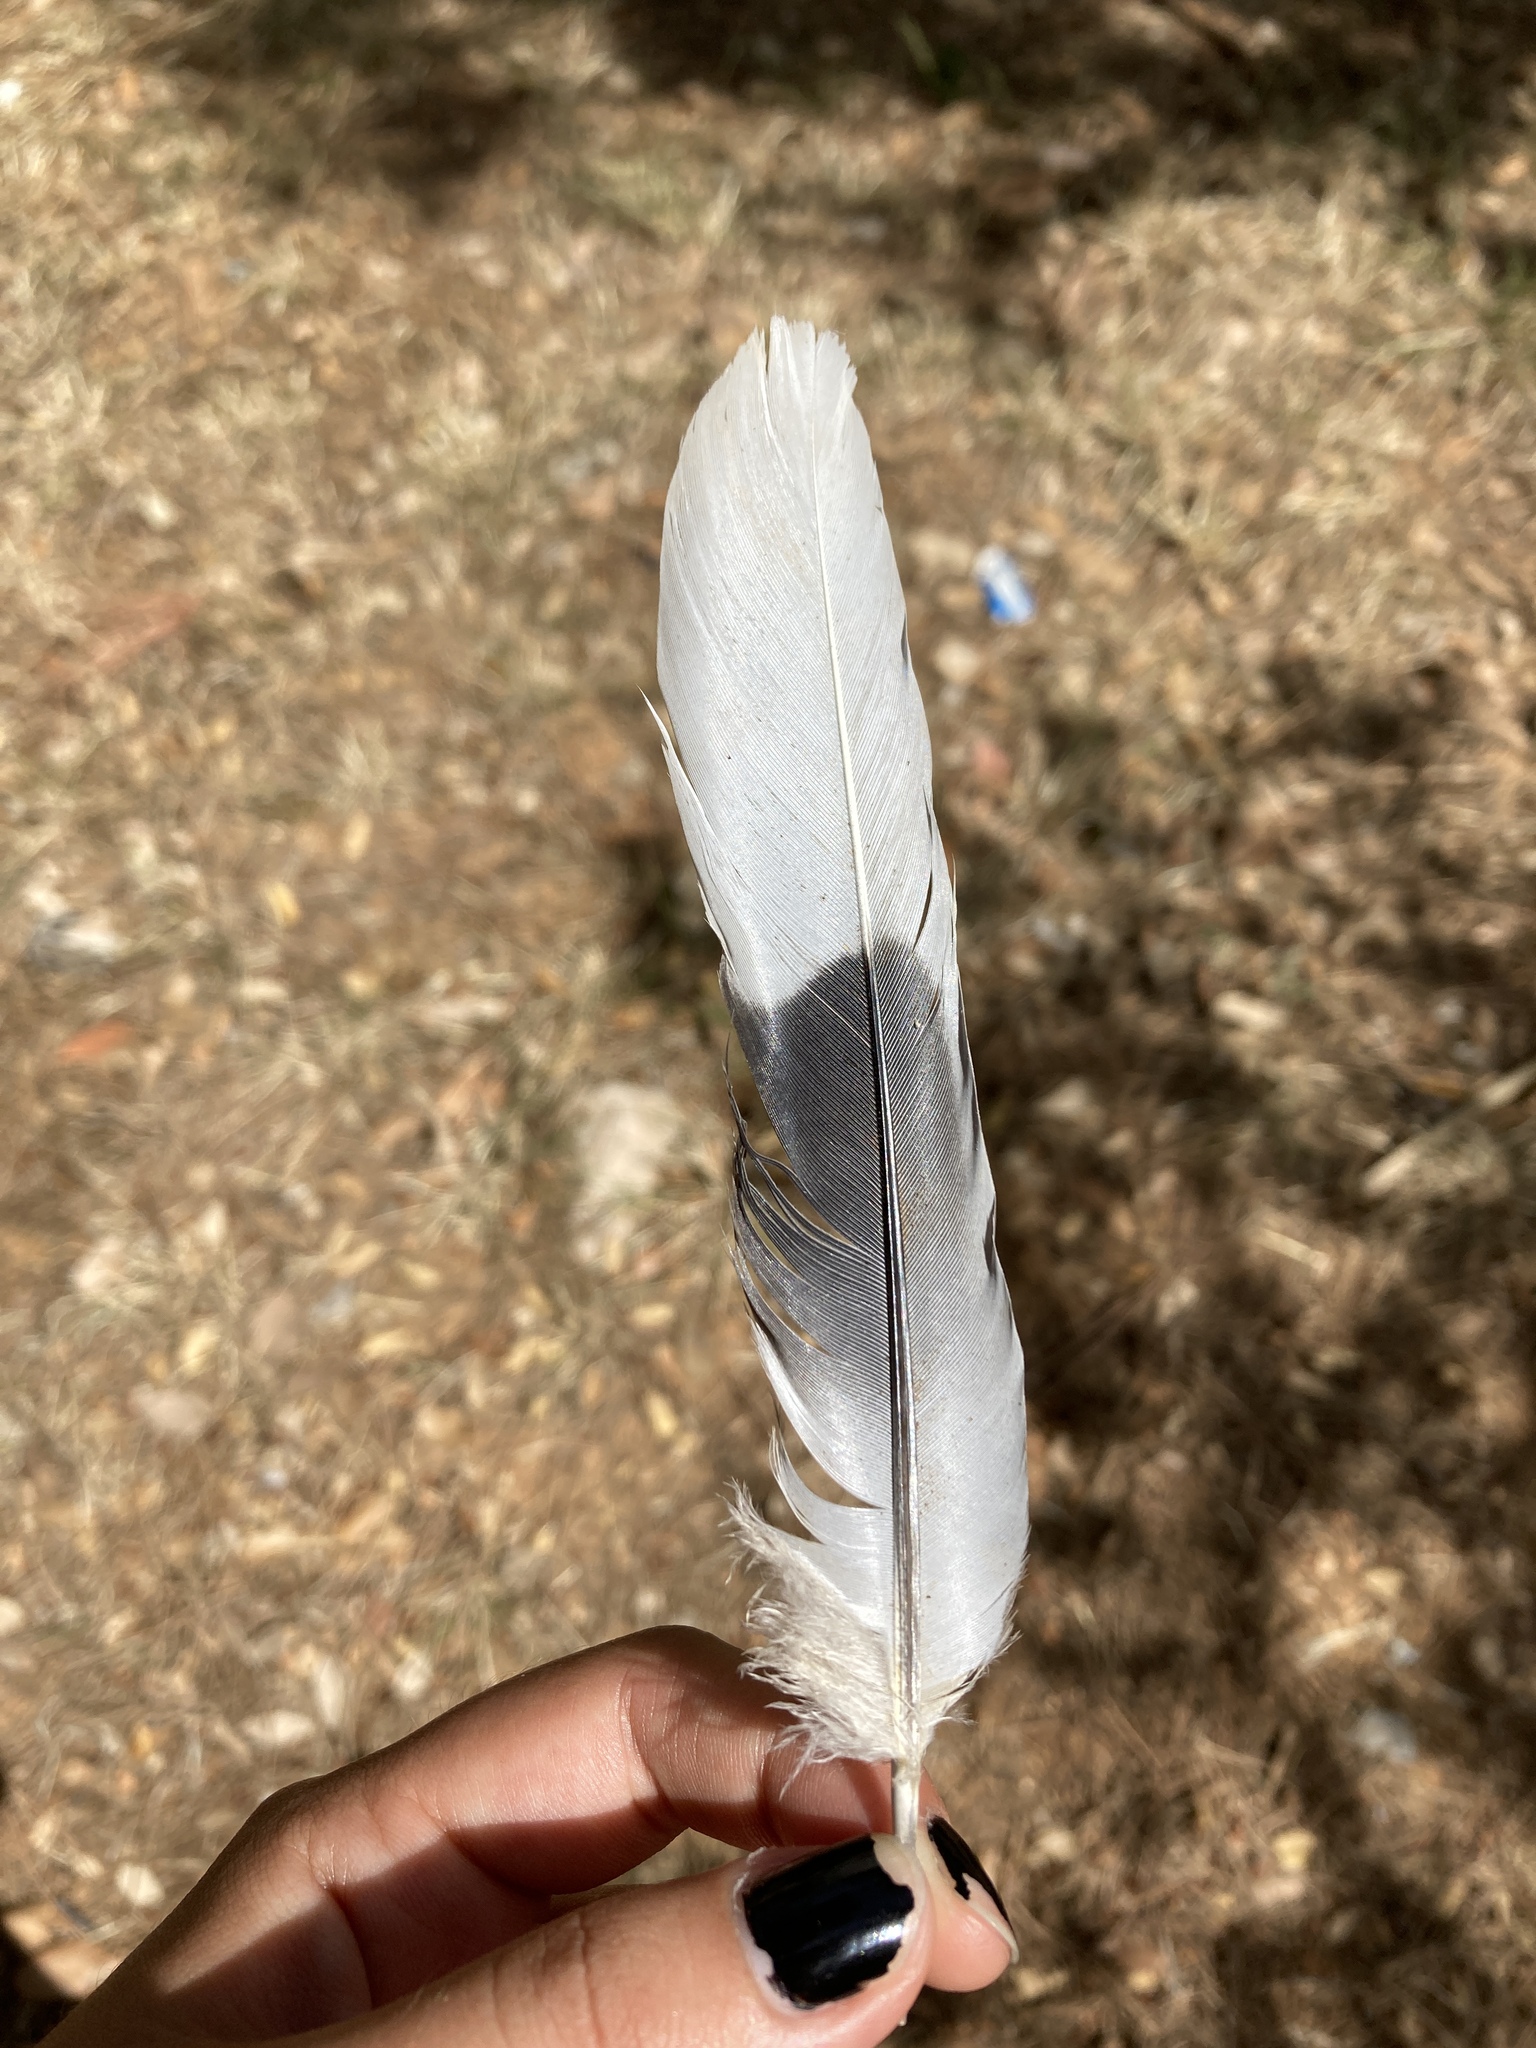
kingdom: Animalia
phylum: Chordata
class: Aves
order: Columbiformes
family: Columbidae
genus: Streptopelia
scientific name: Streptopelia decaocto
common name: Eurasian collared dove
